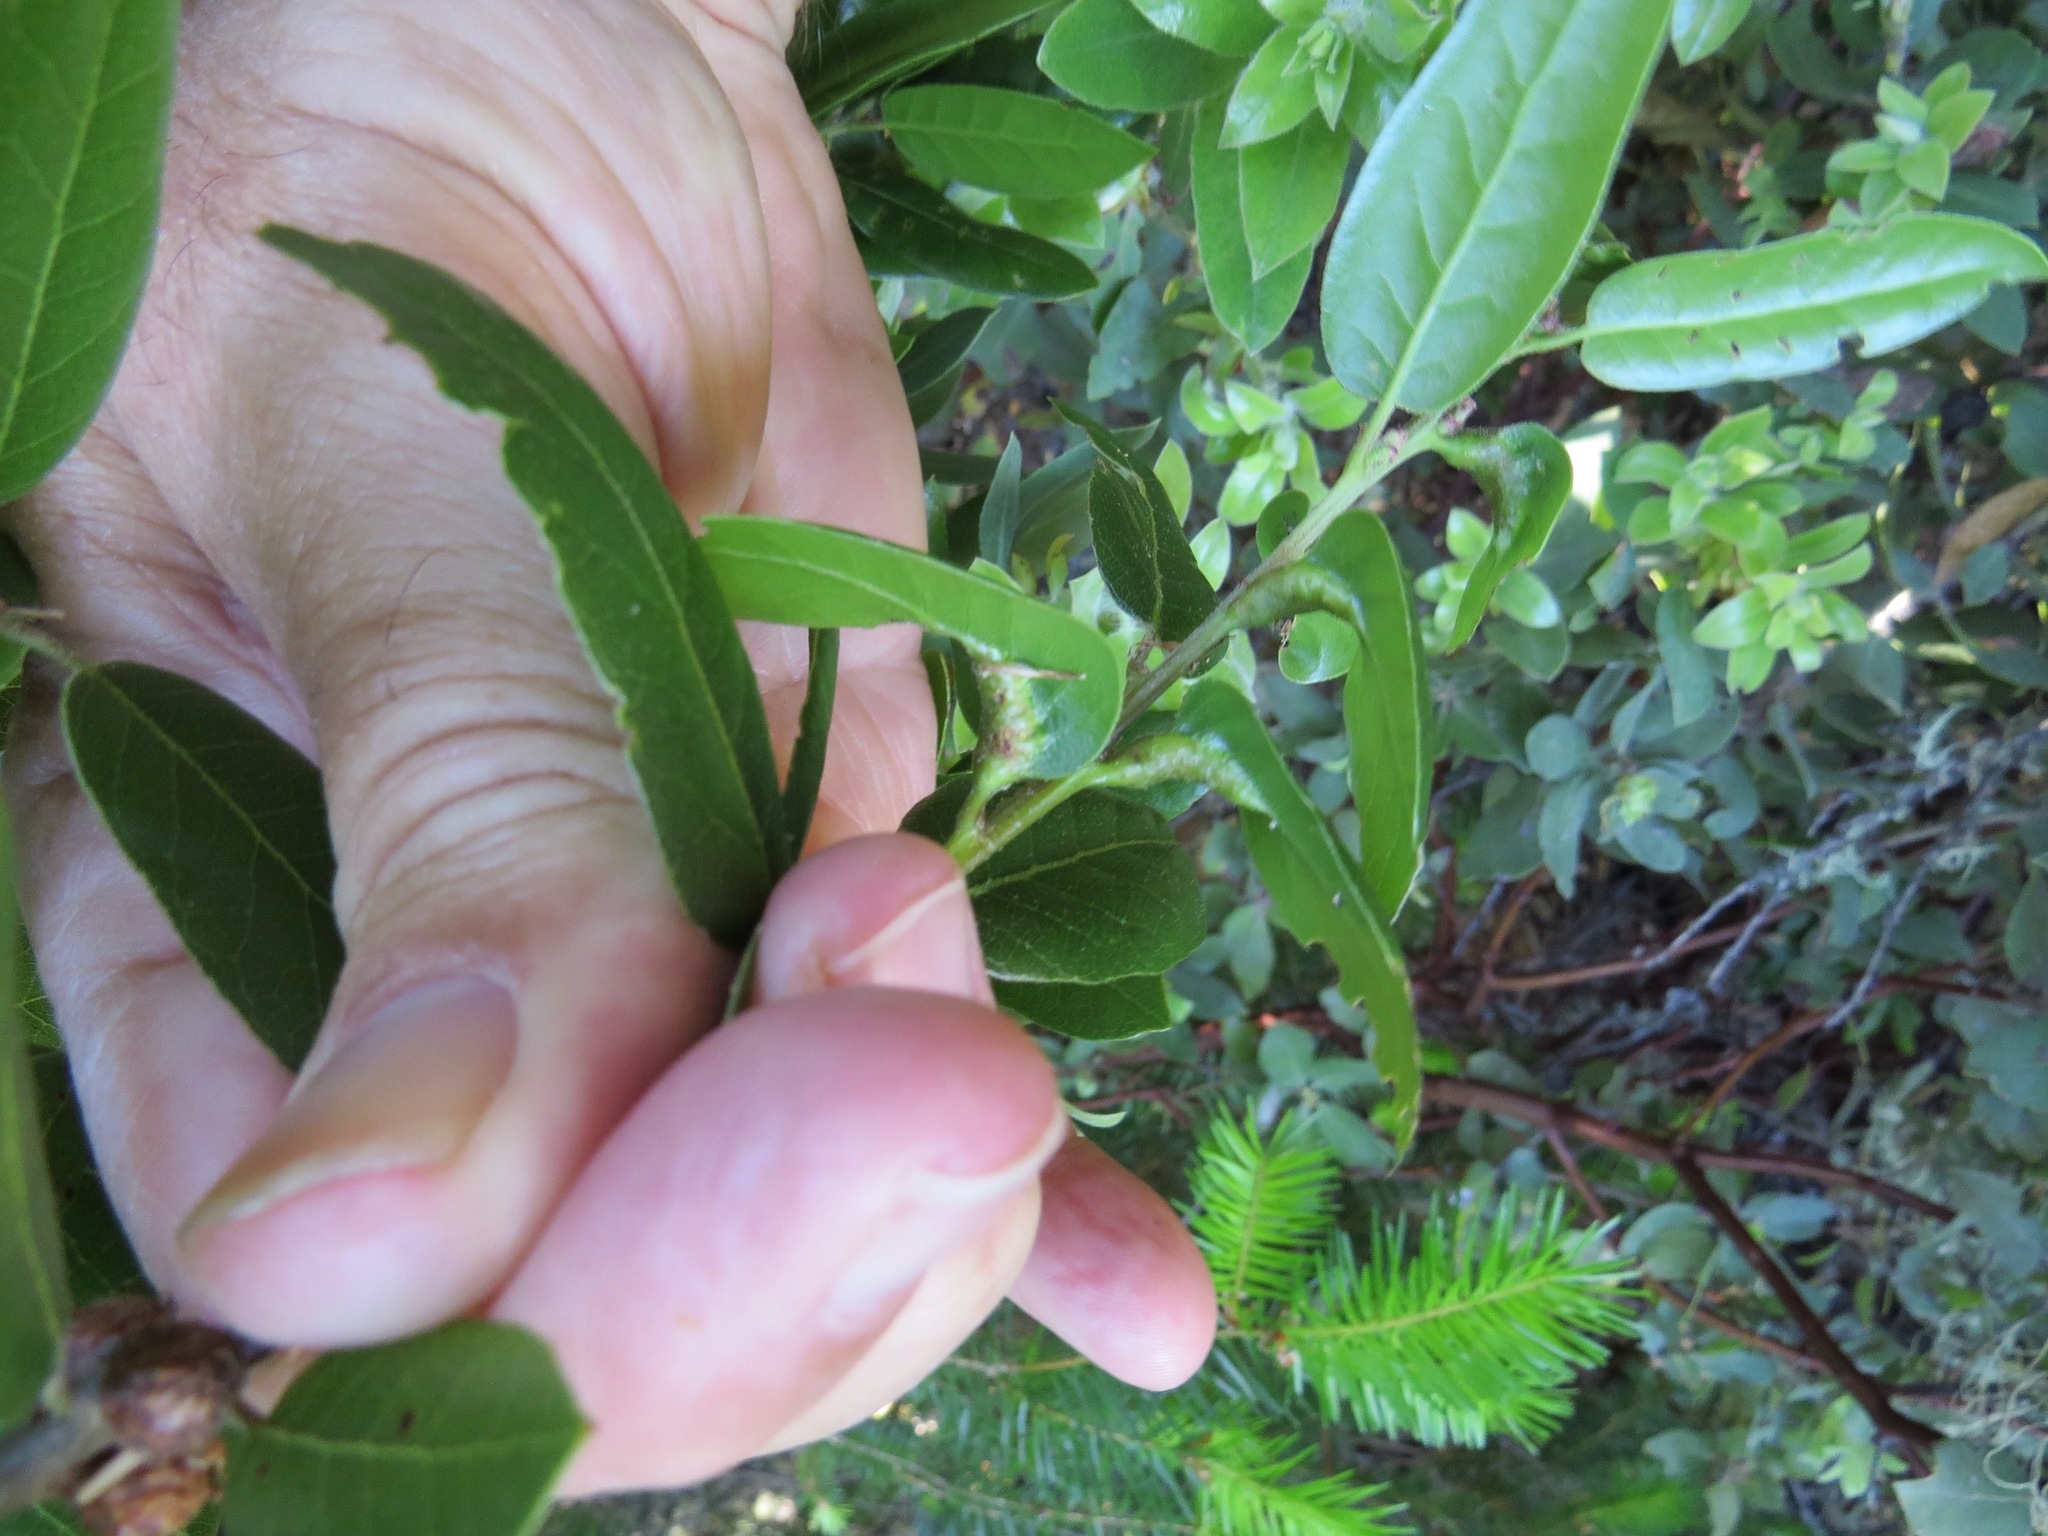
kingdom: Animalia
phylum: Arthropoda
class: Insecta
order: Hymenoptera
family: Cynipidae
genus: Melikaiella
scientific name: Melikaiella
